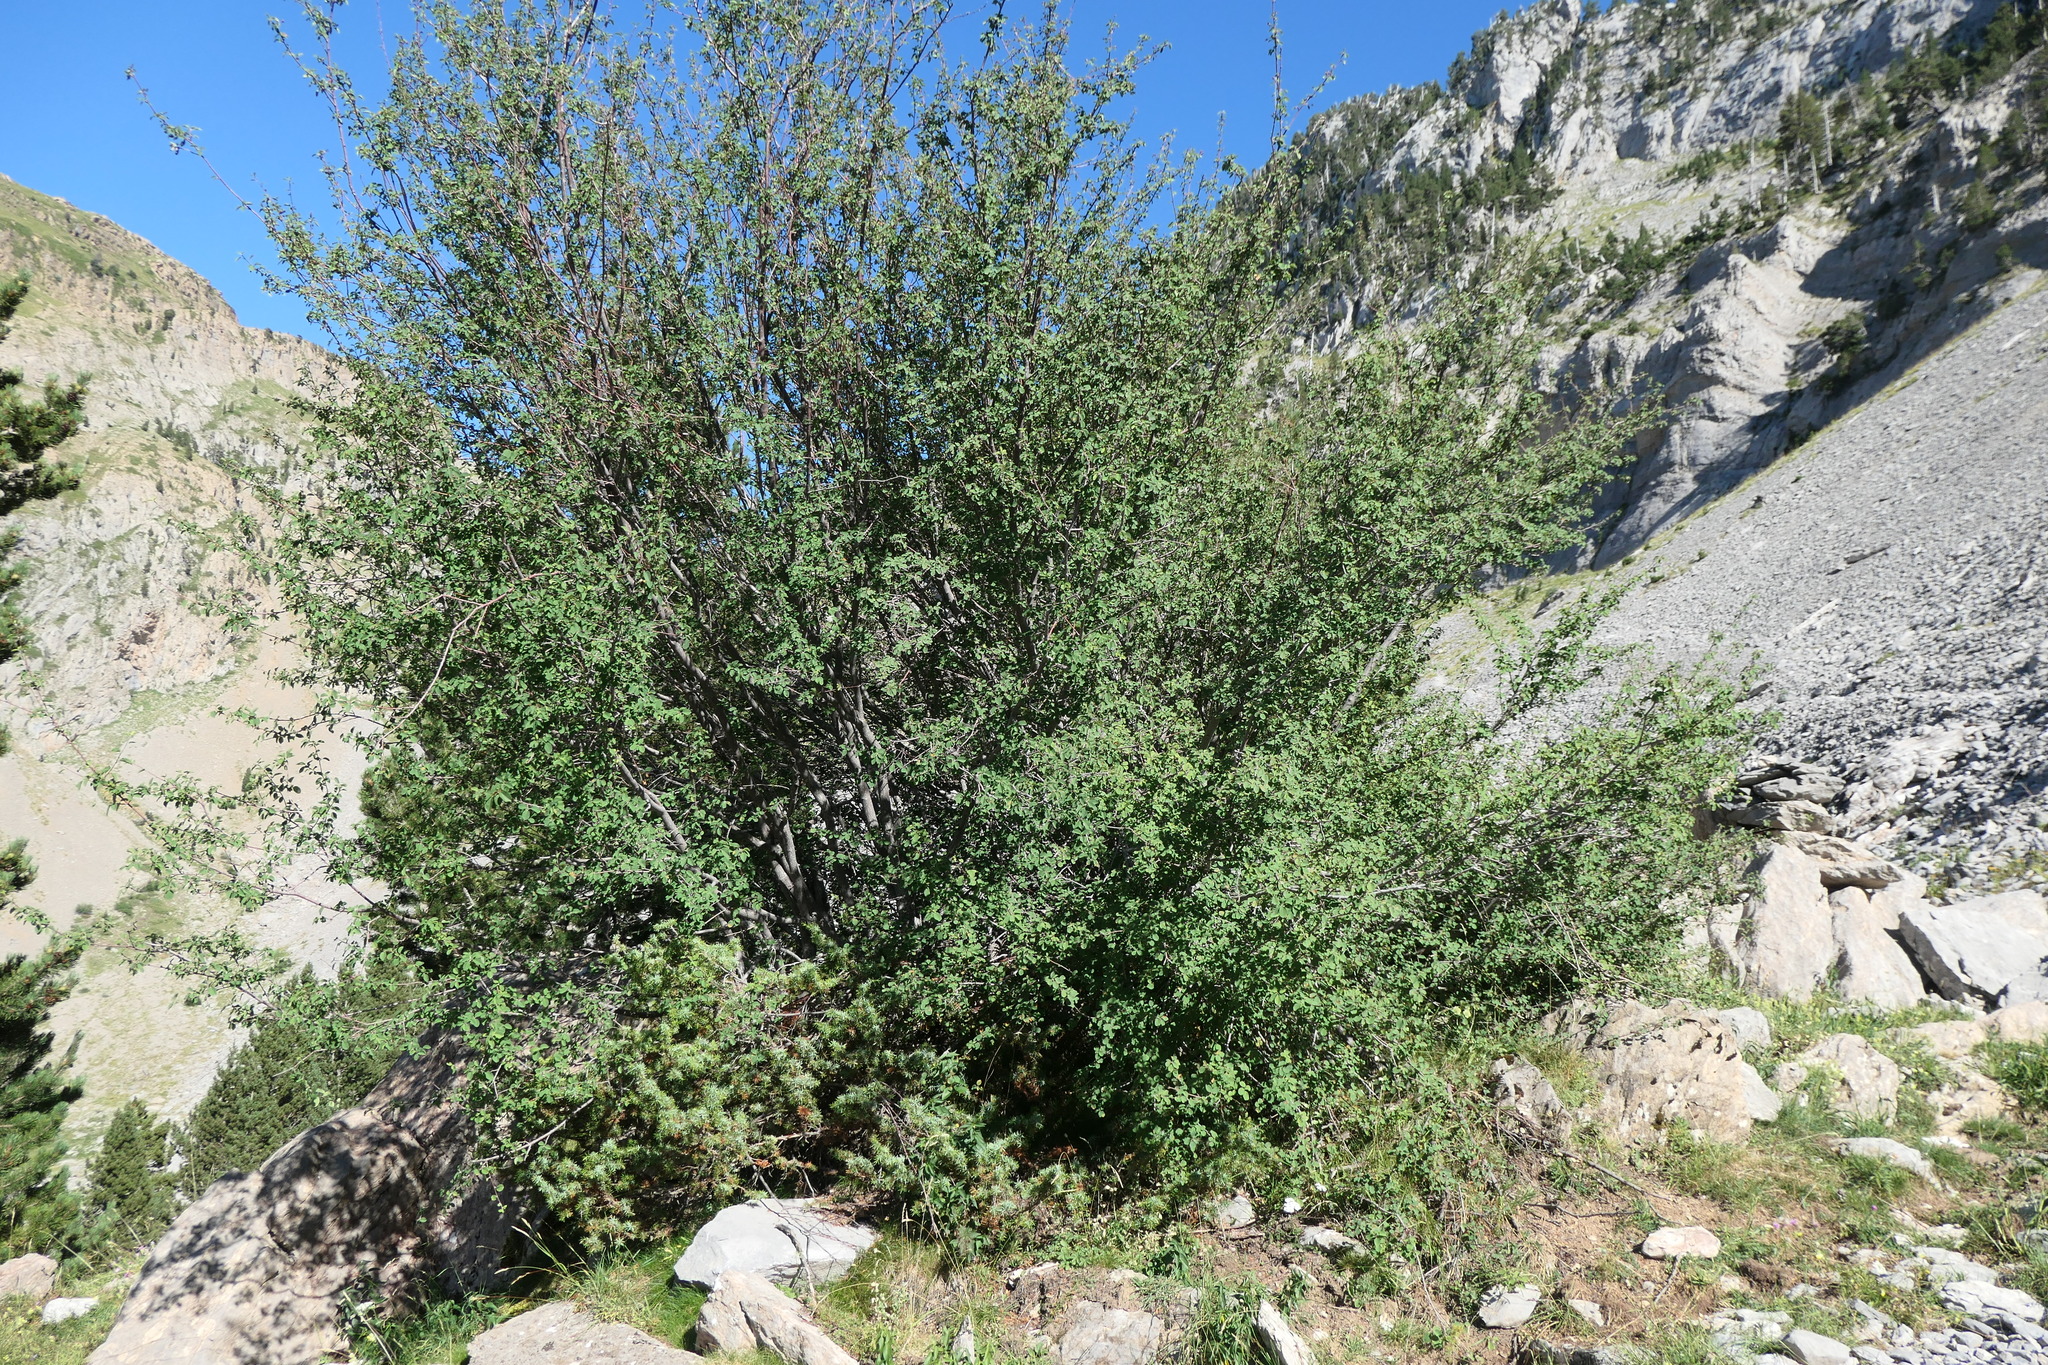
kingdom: Plantae
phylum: Tracheophyta
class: Magnoliopsida
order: Rosales
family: Rosaceae
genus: Amelanchier
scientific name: Amelanchier ovalis
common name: Serviceberry
